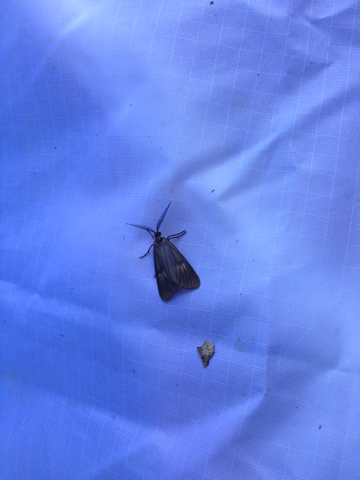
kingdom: Animalia
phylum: Arthropoda
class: Insecta
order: Lepidoptera
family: Notodontidae
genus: Phryganidia
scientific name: Phryganidia californica
